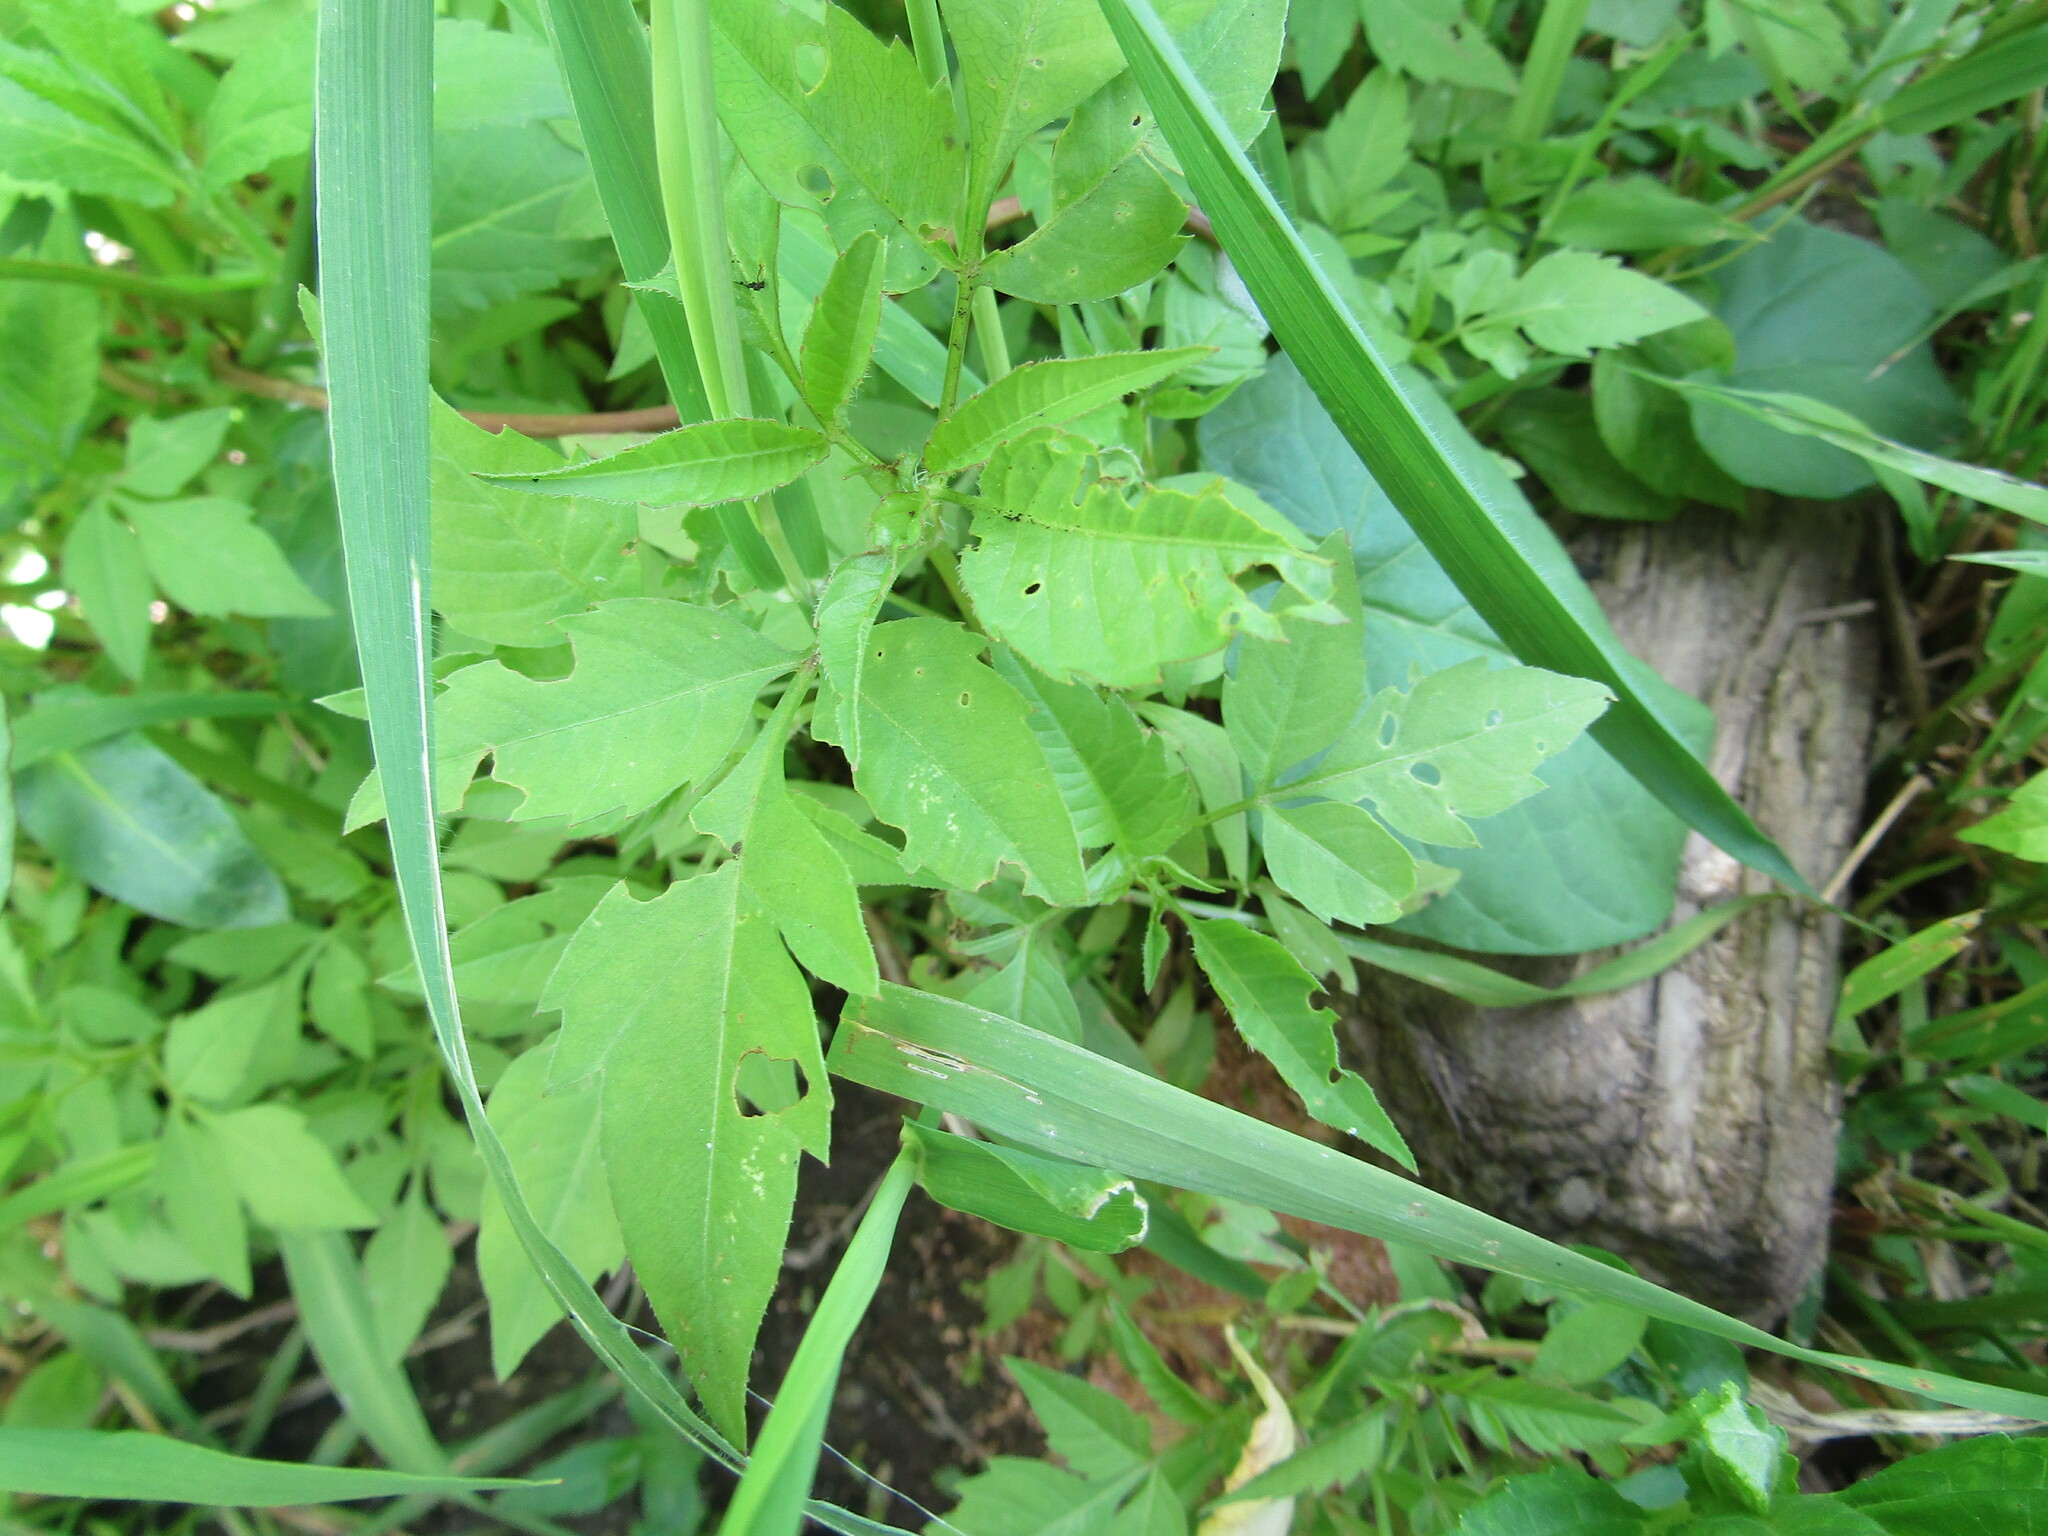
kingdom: Plantae
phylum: Tracheophyta
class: Magnoliopsida
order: Asterales
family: Asteraceae
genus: Bidens
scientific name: Bidens frondosa
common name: Beggarticks
